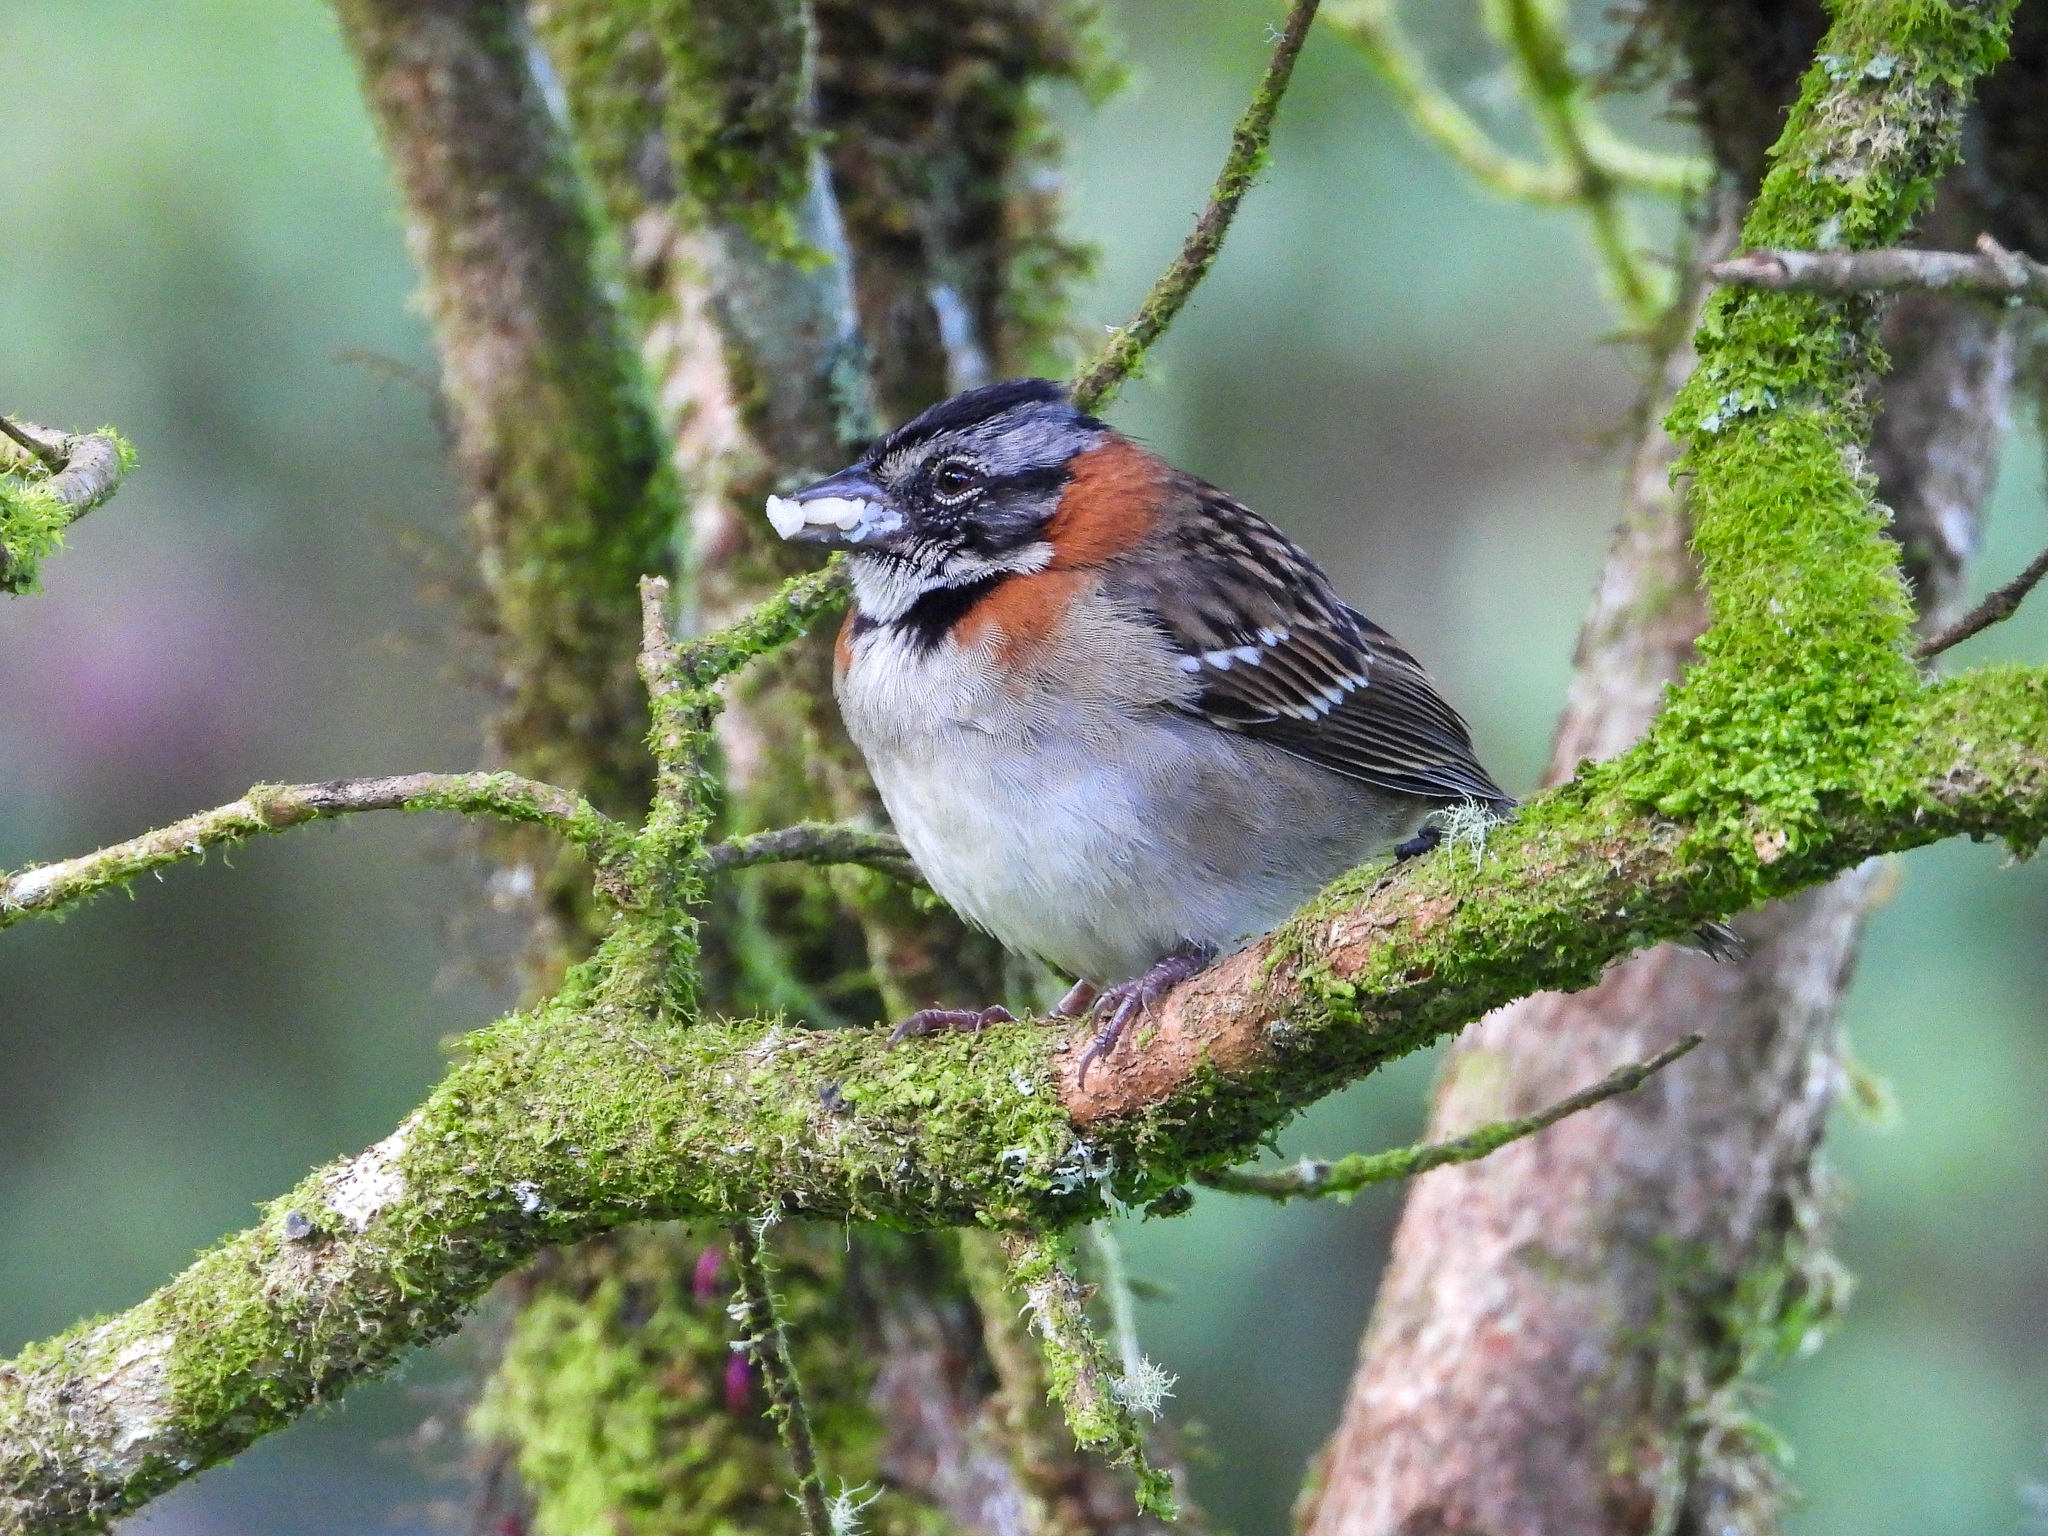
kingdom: Animalia
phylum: Chordata
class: Aves
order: Passeriformes
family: Passerellidae
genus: Zonotrichia
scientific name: Zonotrichia capensis
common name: Rufous-collared sparrow
